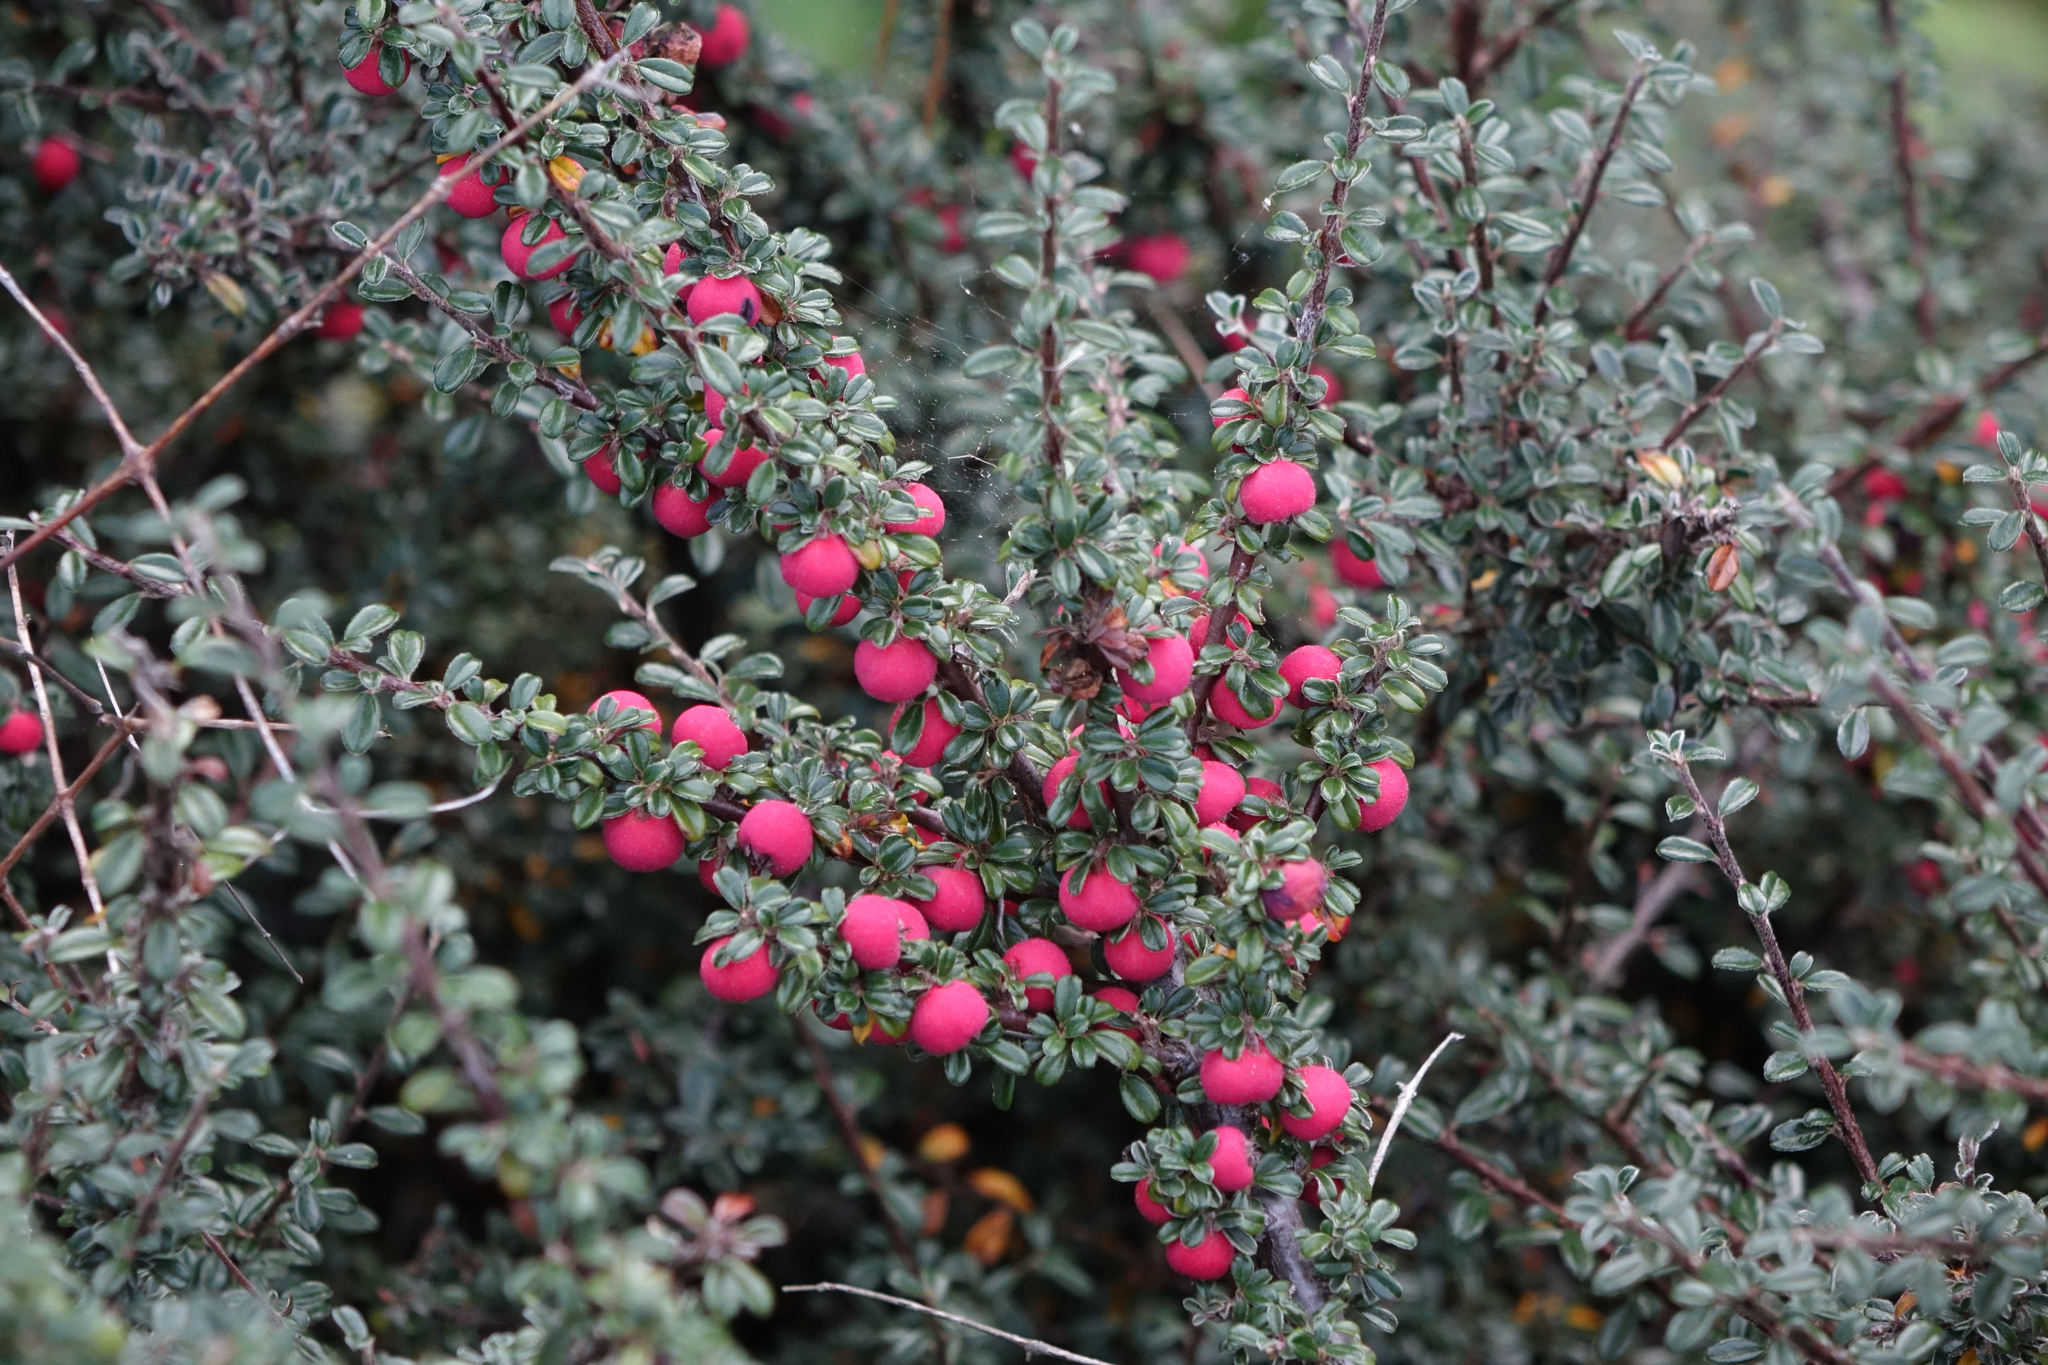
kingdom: Plantae
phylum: Tracheophyta
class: Magnoliopsida
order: Rosales
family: Rosaceae
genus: Cotoneaster
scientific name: Cotoneaster microphyllus
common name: Small-leaved cotoneaster
